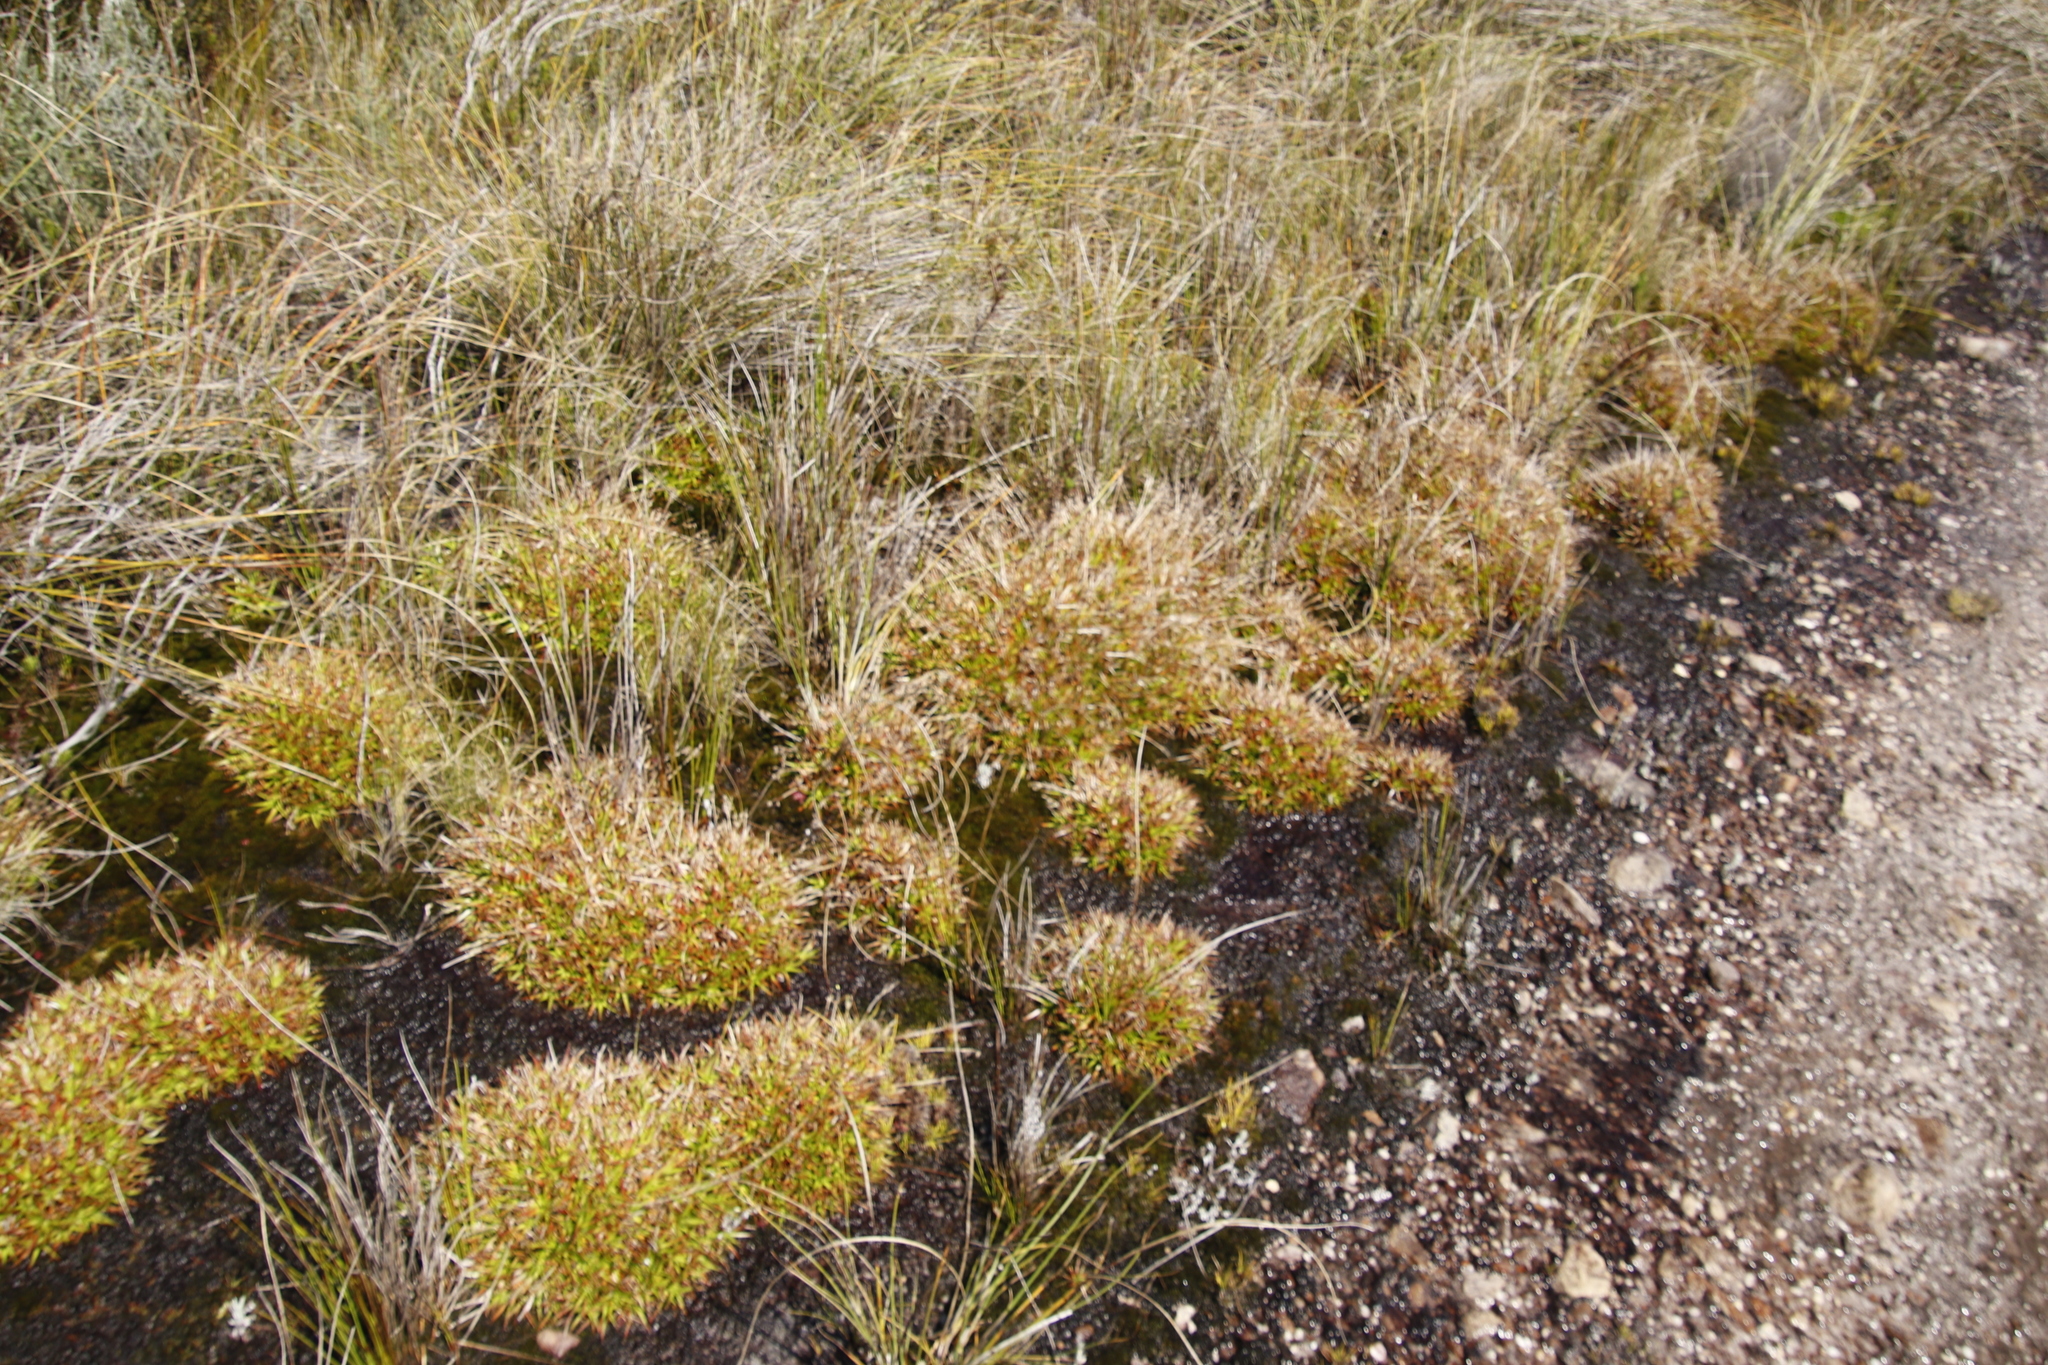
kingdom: Plantae
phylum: Tracheophyta
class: Liliopsida
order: Poales
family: Juncaceae
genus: Juncus
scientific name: Juncus lomatophyllus
